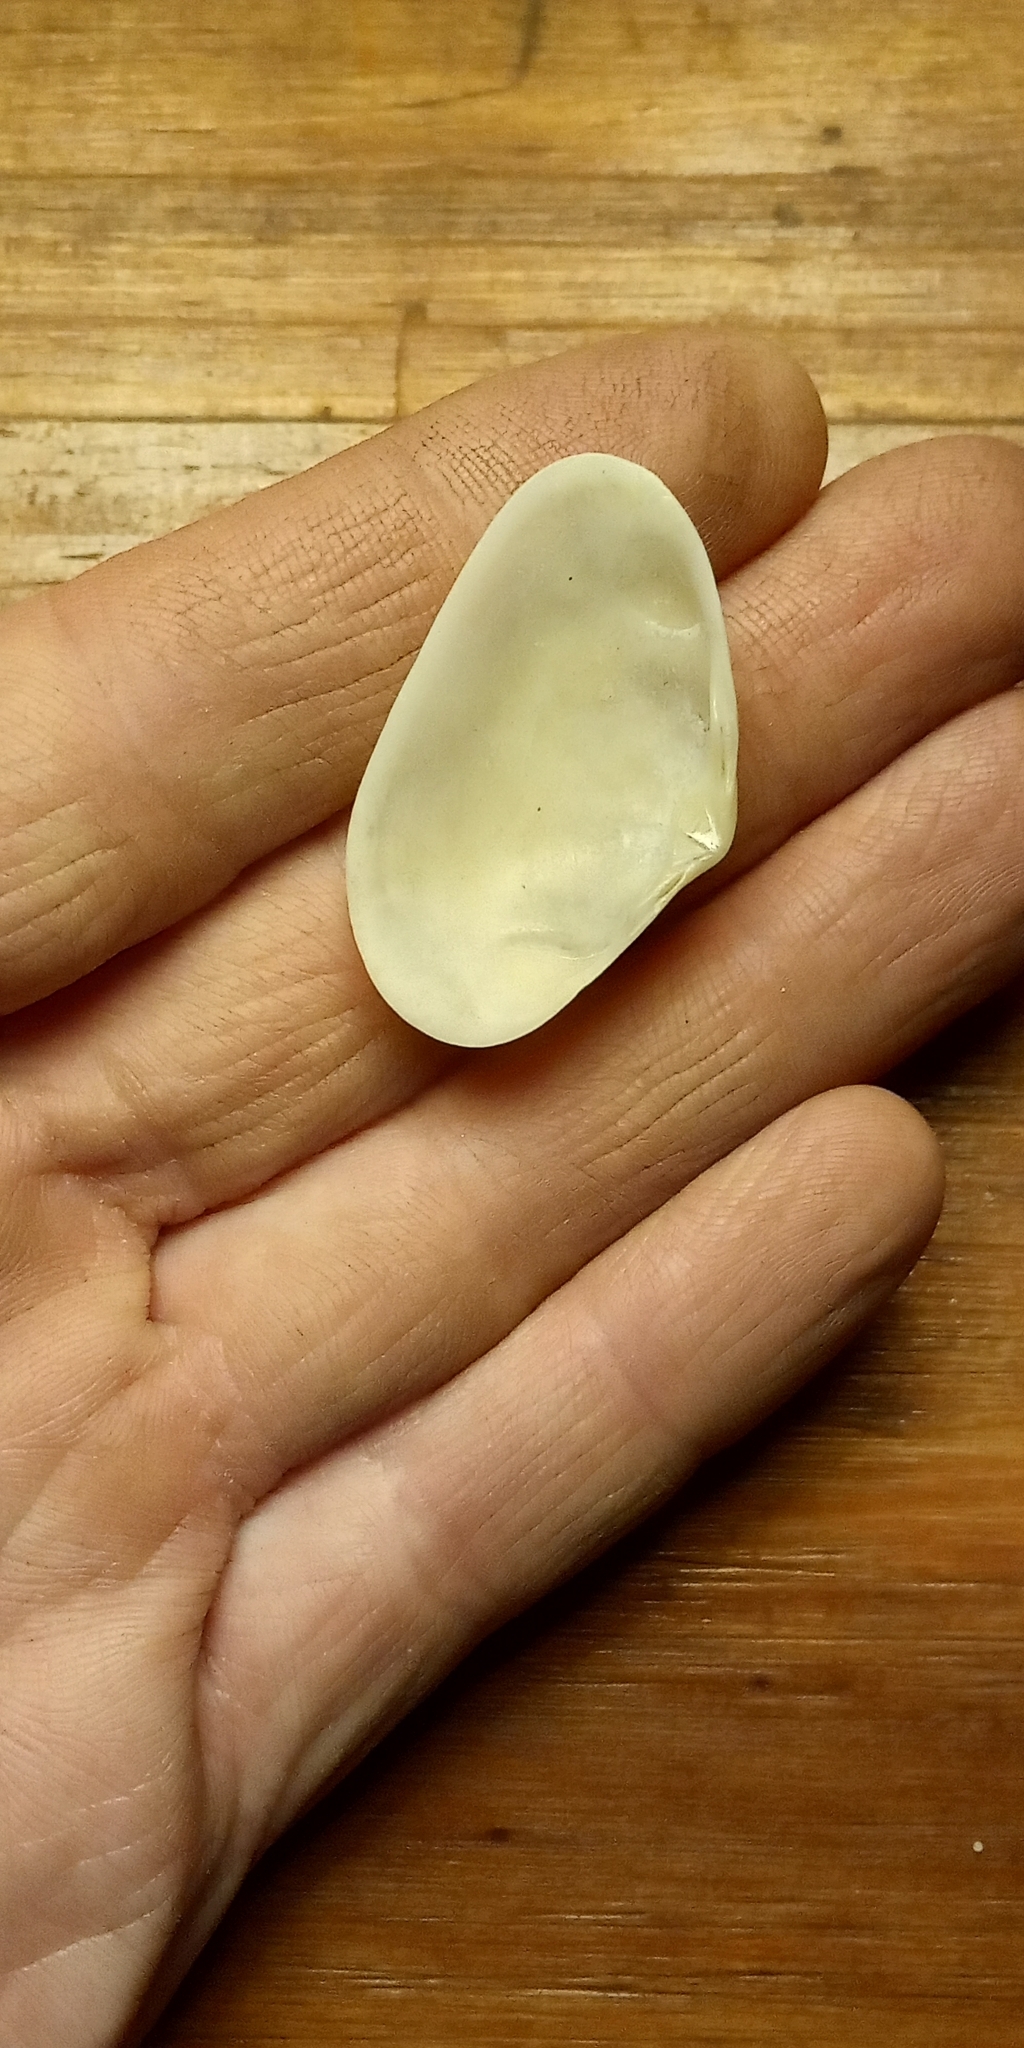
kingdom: Animalia
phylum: Mollusca
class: Bivalvia
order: Venerida
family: Mactridae
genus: Mactra
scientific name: Mactra guidoi
